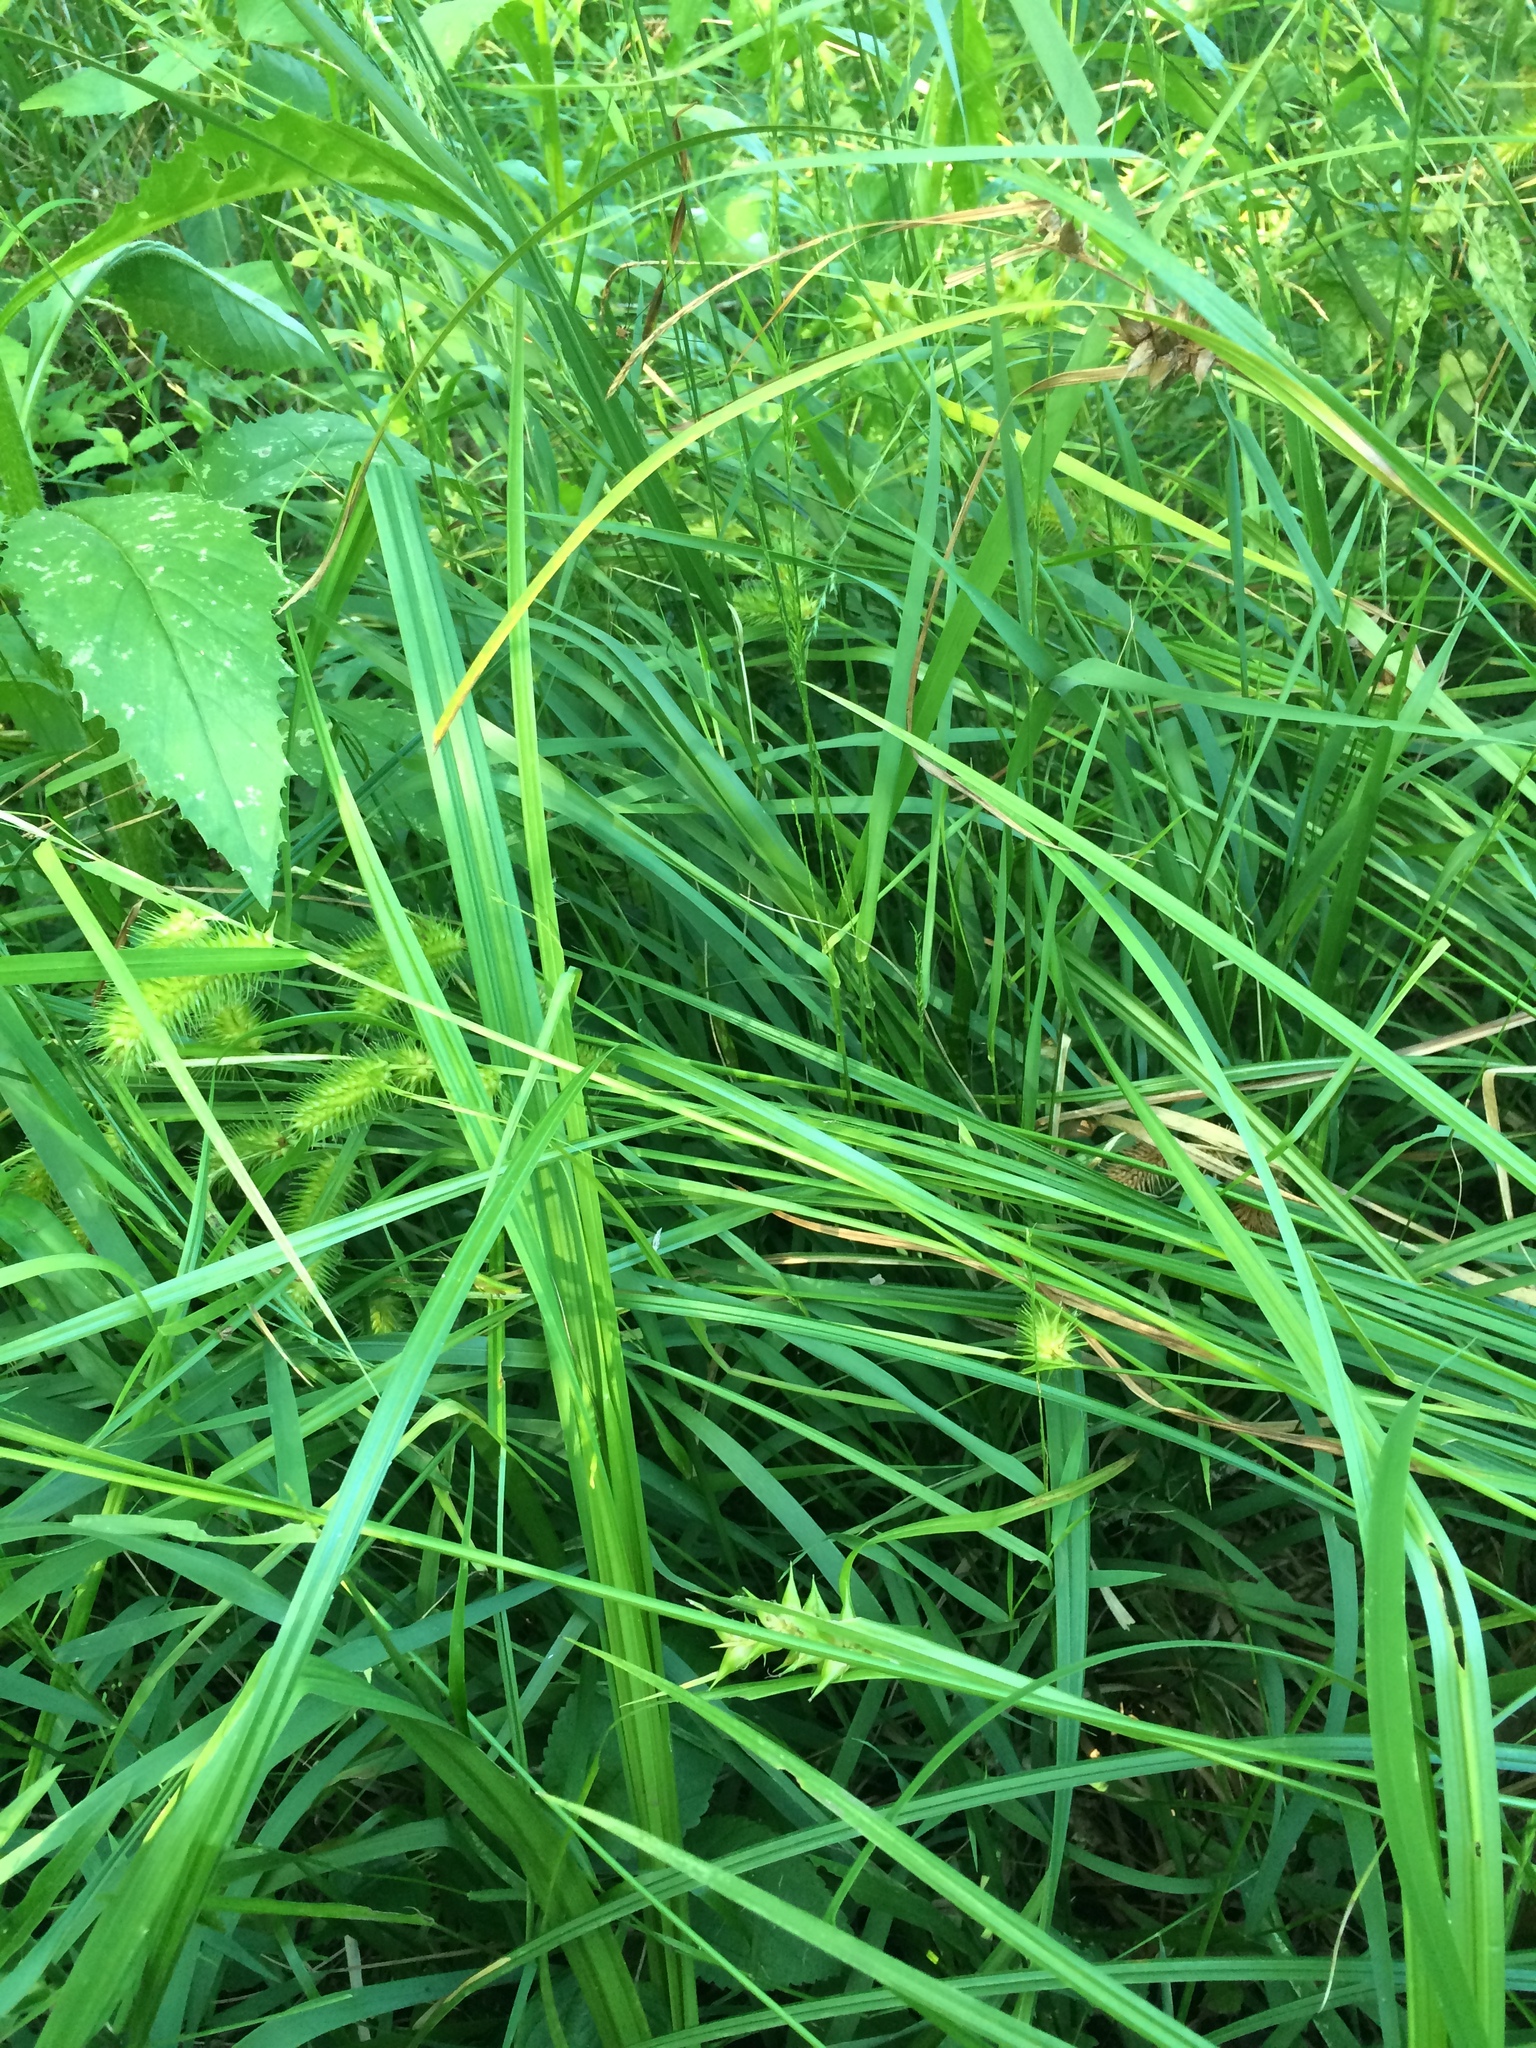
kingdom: Plantae
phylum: Tracheophyta
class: Liliopsida
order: Poales
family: Cyperaceae
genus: Carex
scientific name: Carex intumescens
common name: Greater bladder sedge
